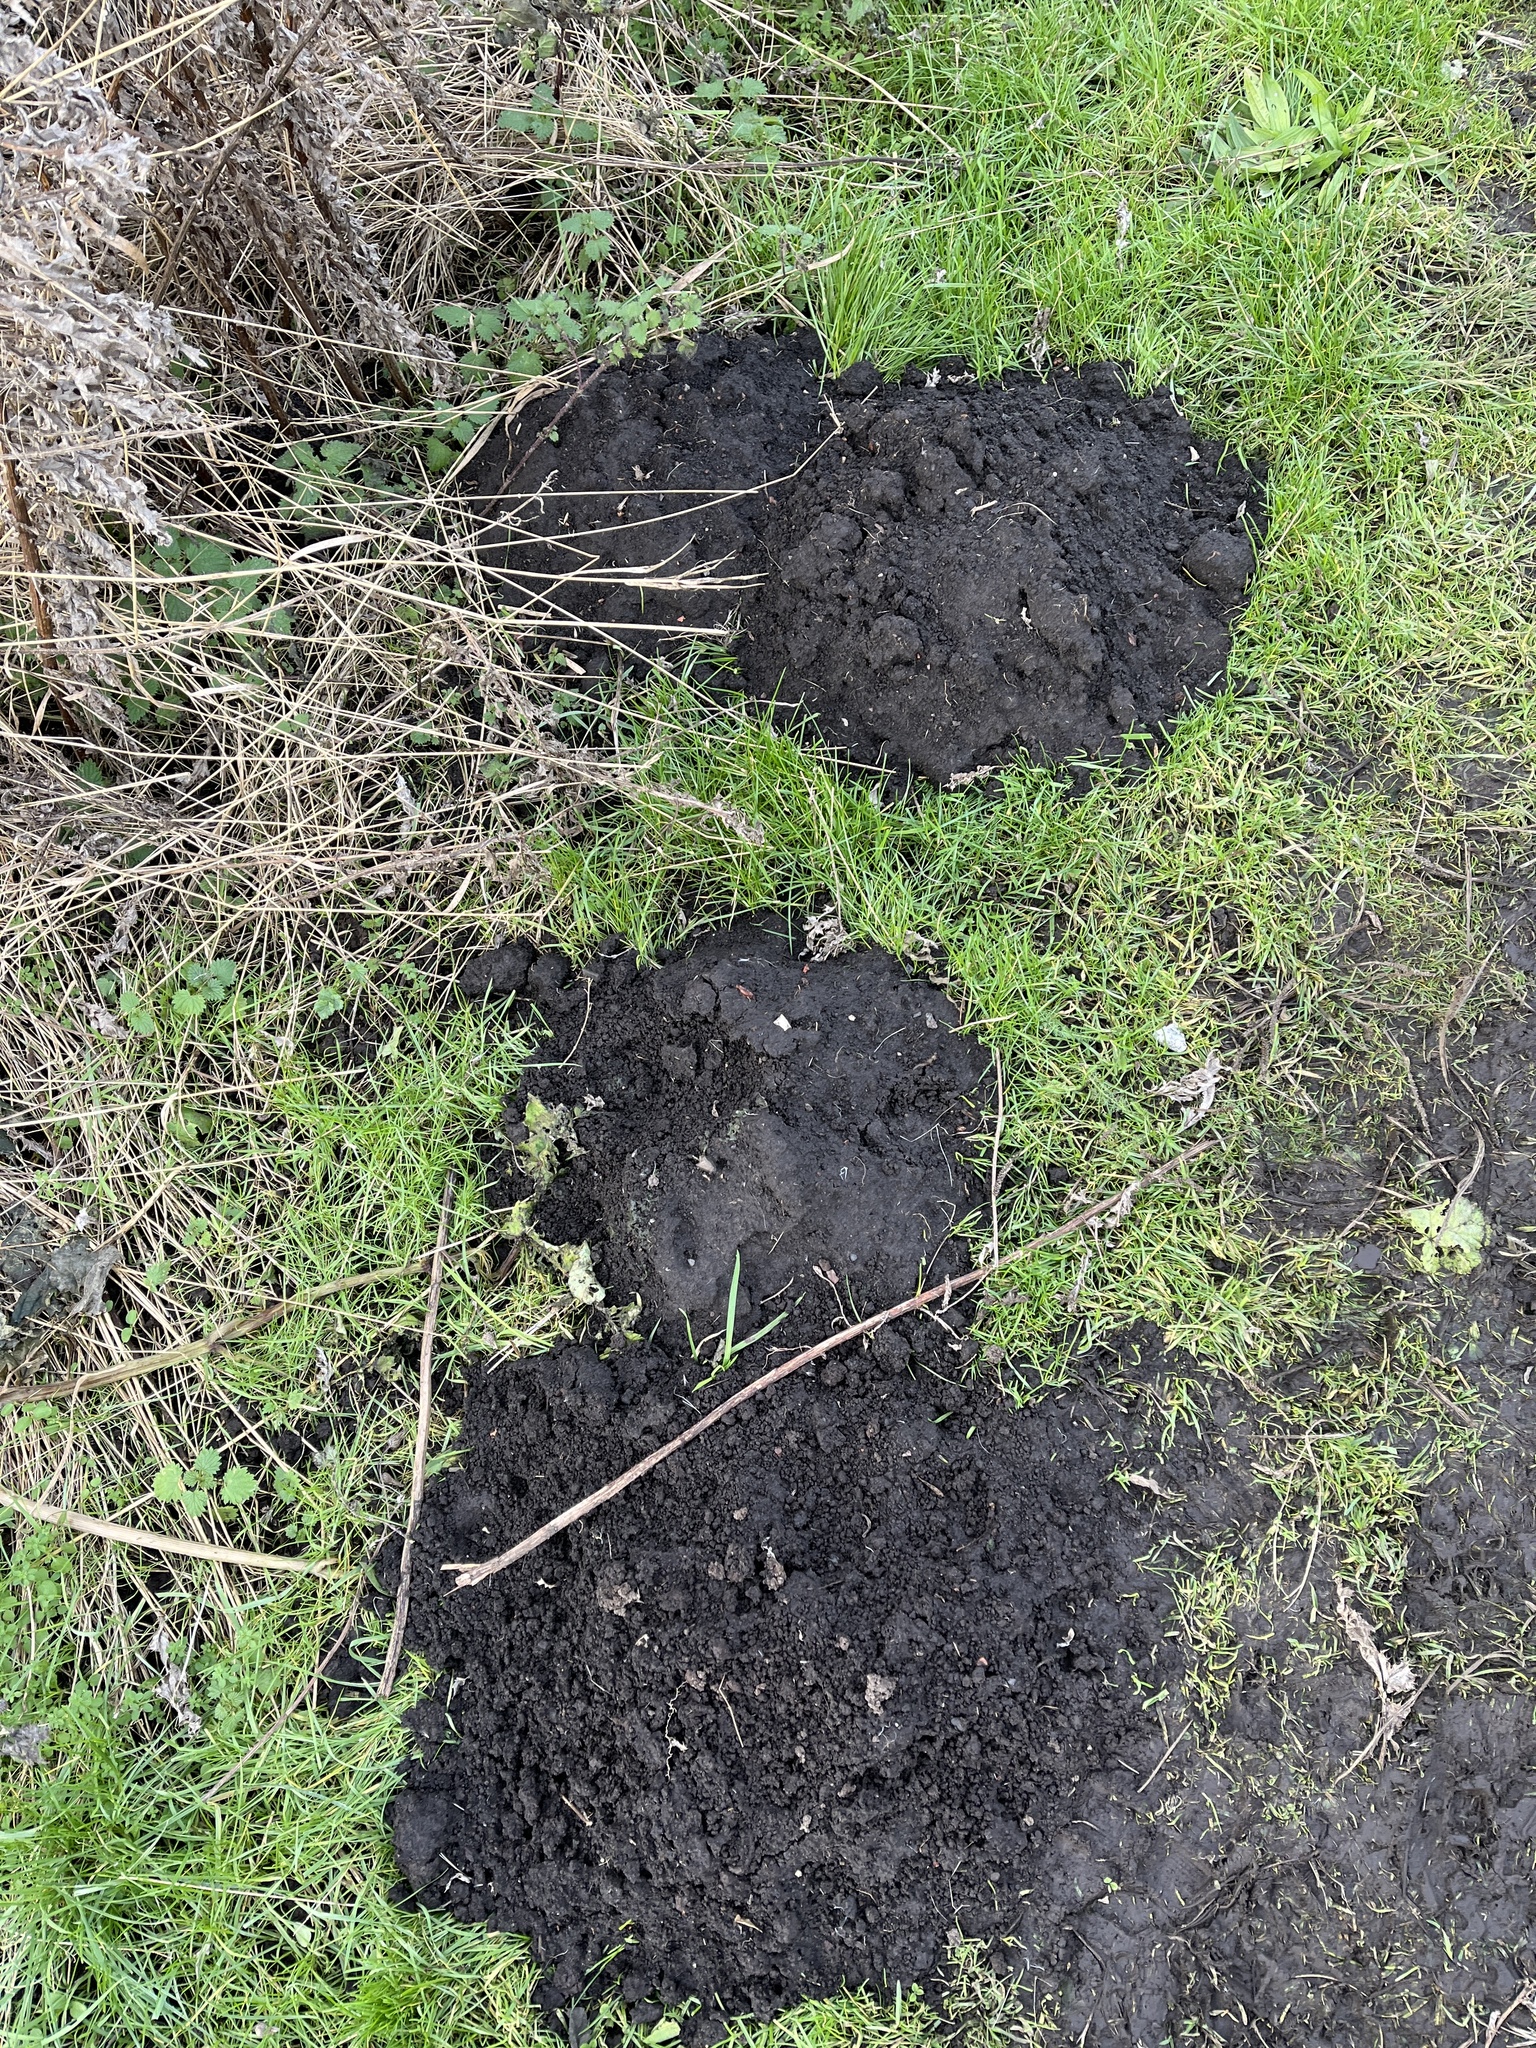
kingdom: Animalia
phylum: Chordata
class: Mammalia
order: Soricomorpha
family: Talpidae
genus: Talpa
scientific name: Talpa europaea
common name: European mole
